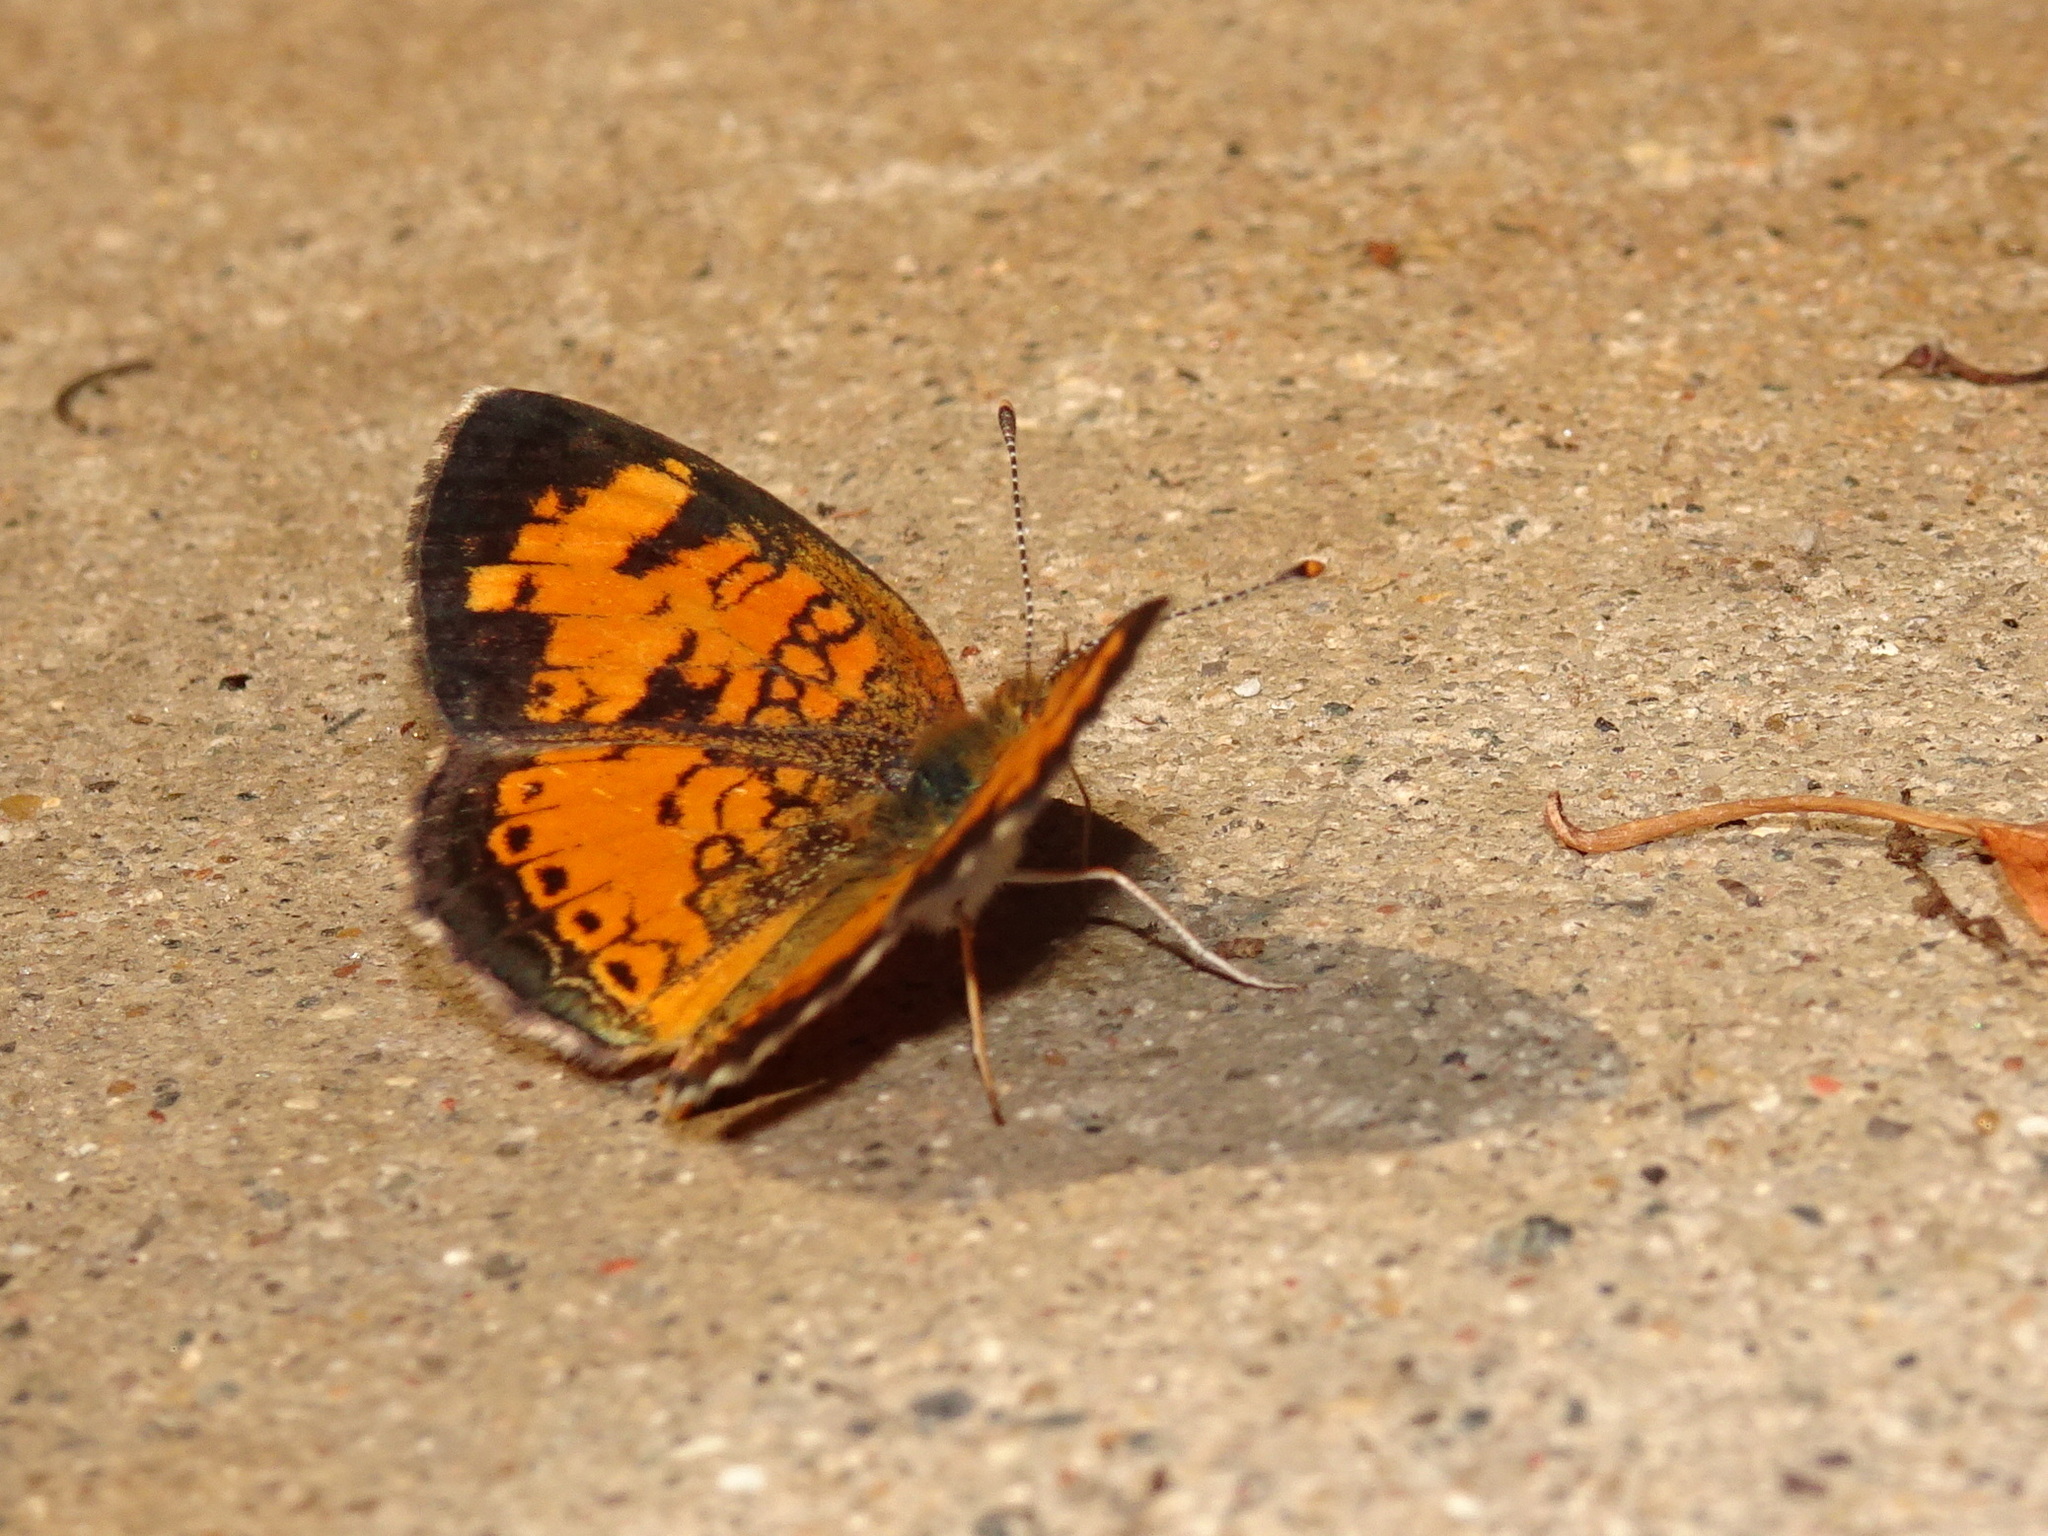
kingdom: Animalia
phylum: Arthropoda
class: Insecta
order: Lepidoptera
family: Nymphalidae
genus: Phyciodes
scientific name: Phyciodes tharos
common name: Pearl crescent
